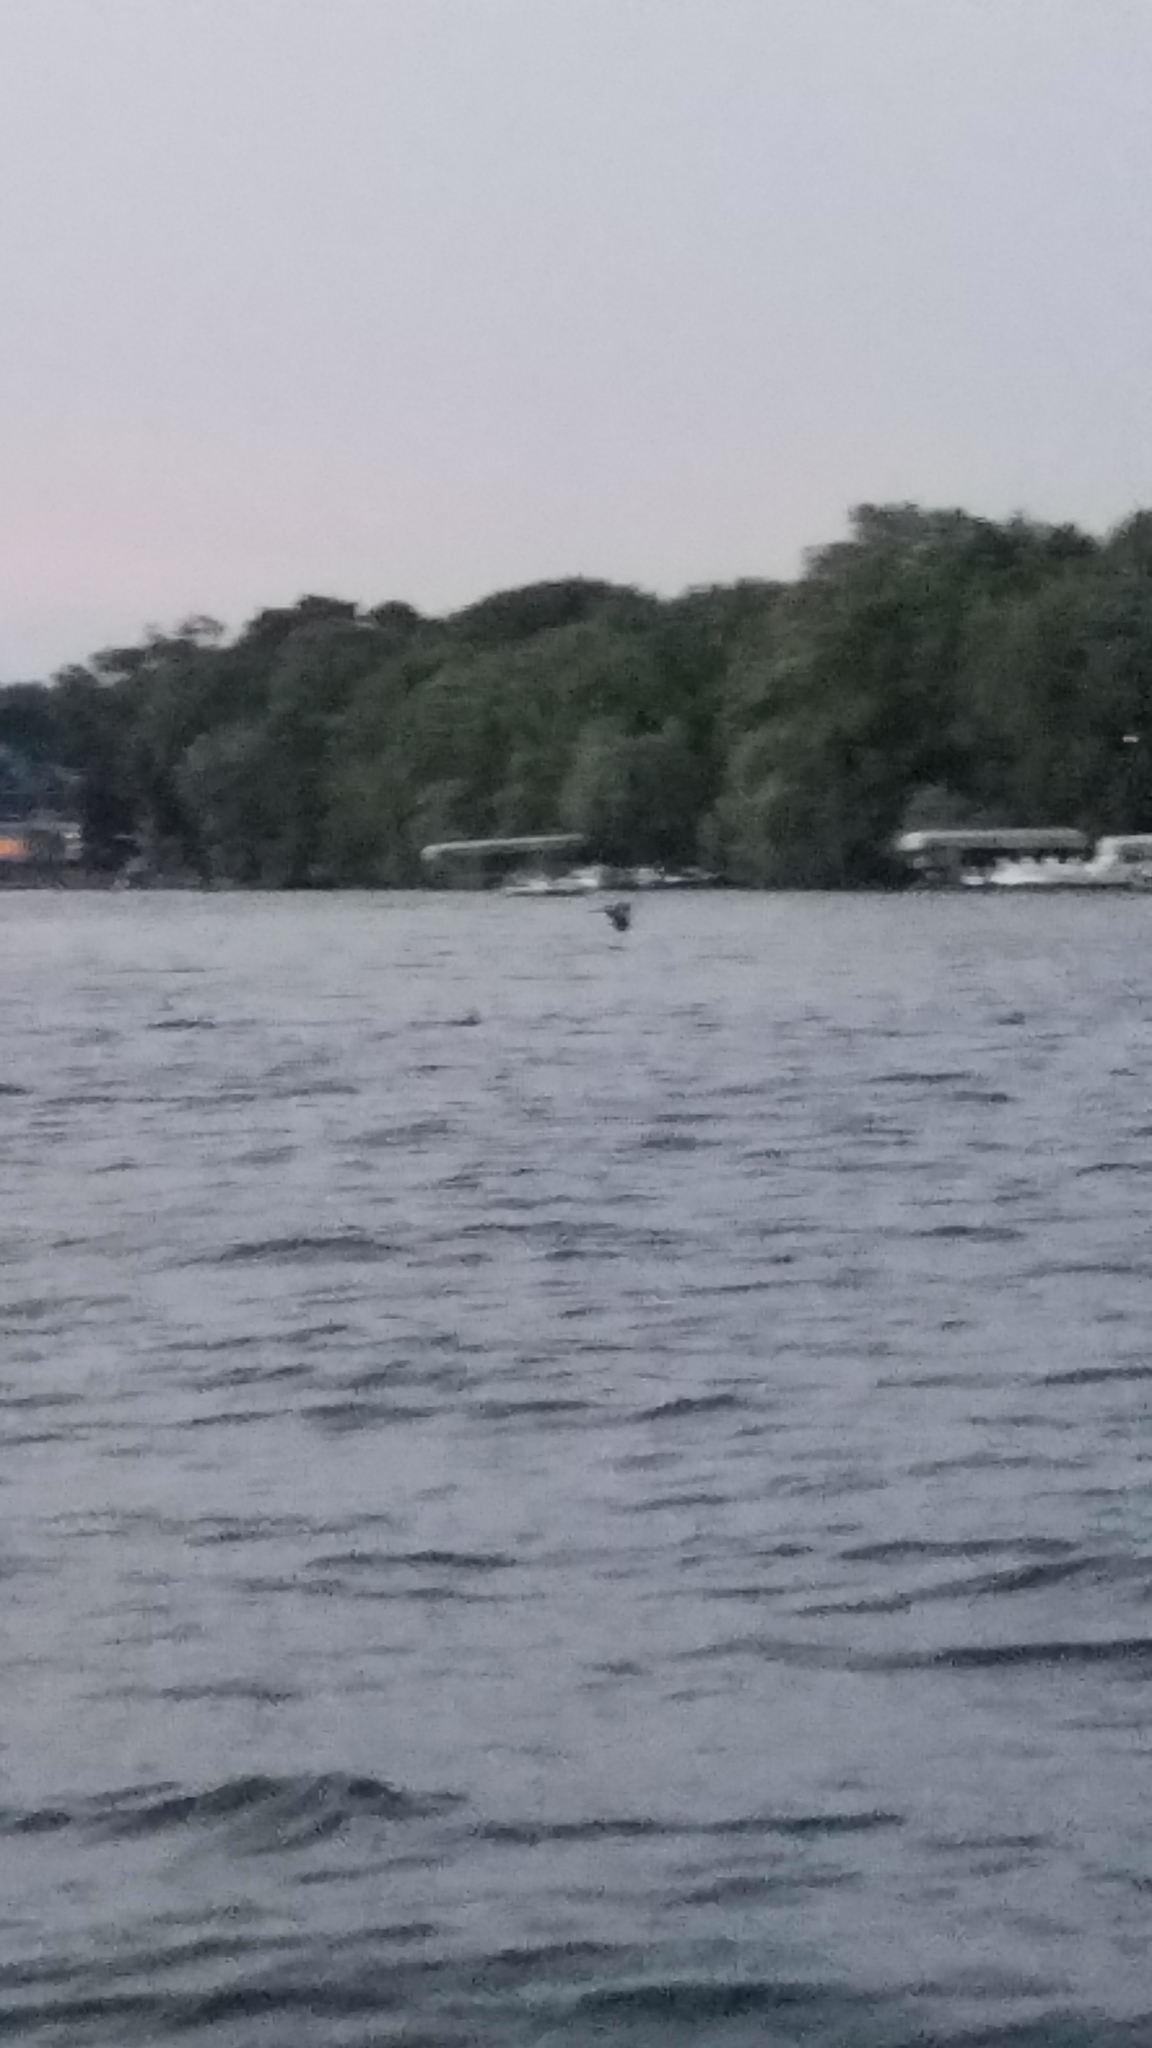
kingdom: Animalia
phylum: Chordata
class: Aves
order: Pelecaniformes
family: Ardeidae
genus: Ardea
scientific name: Ardea herodias
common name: Great blue heron
